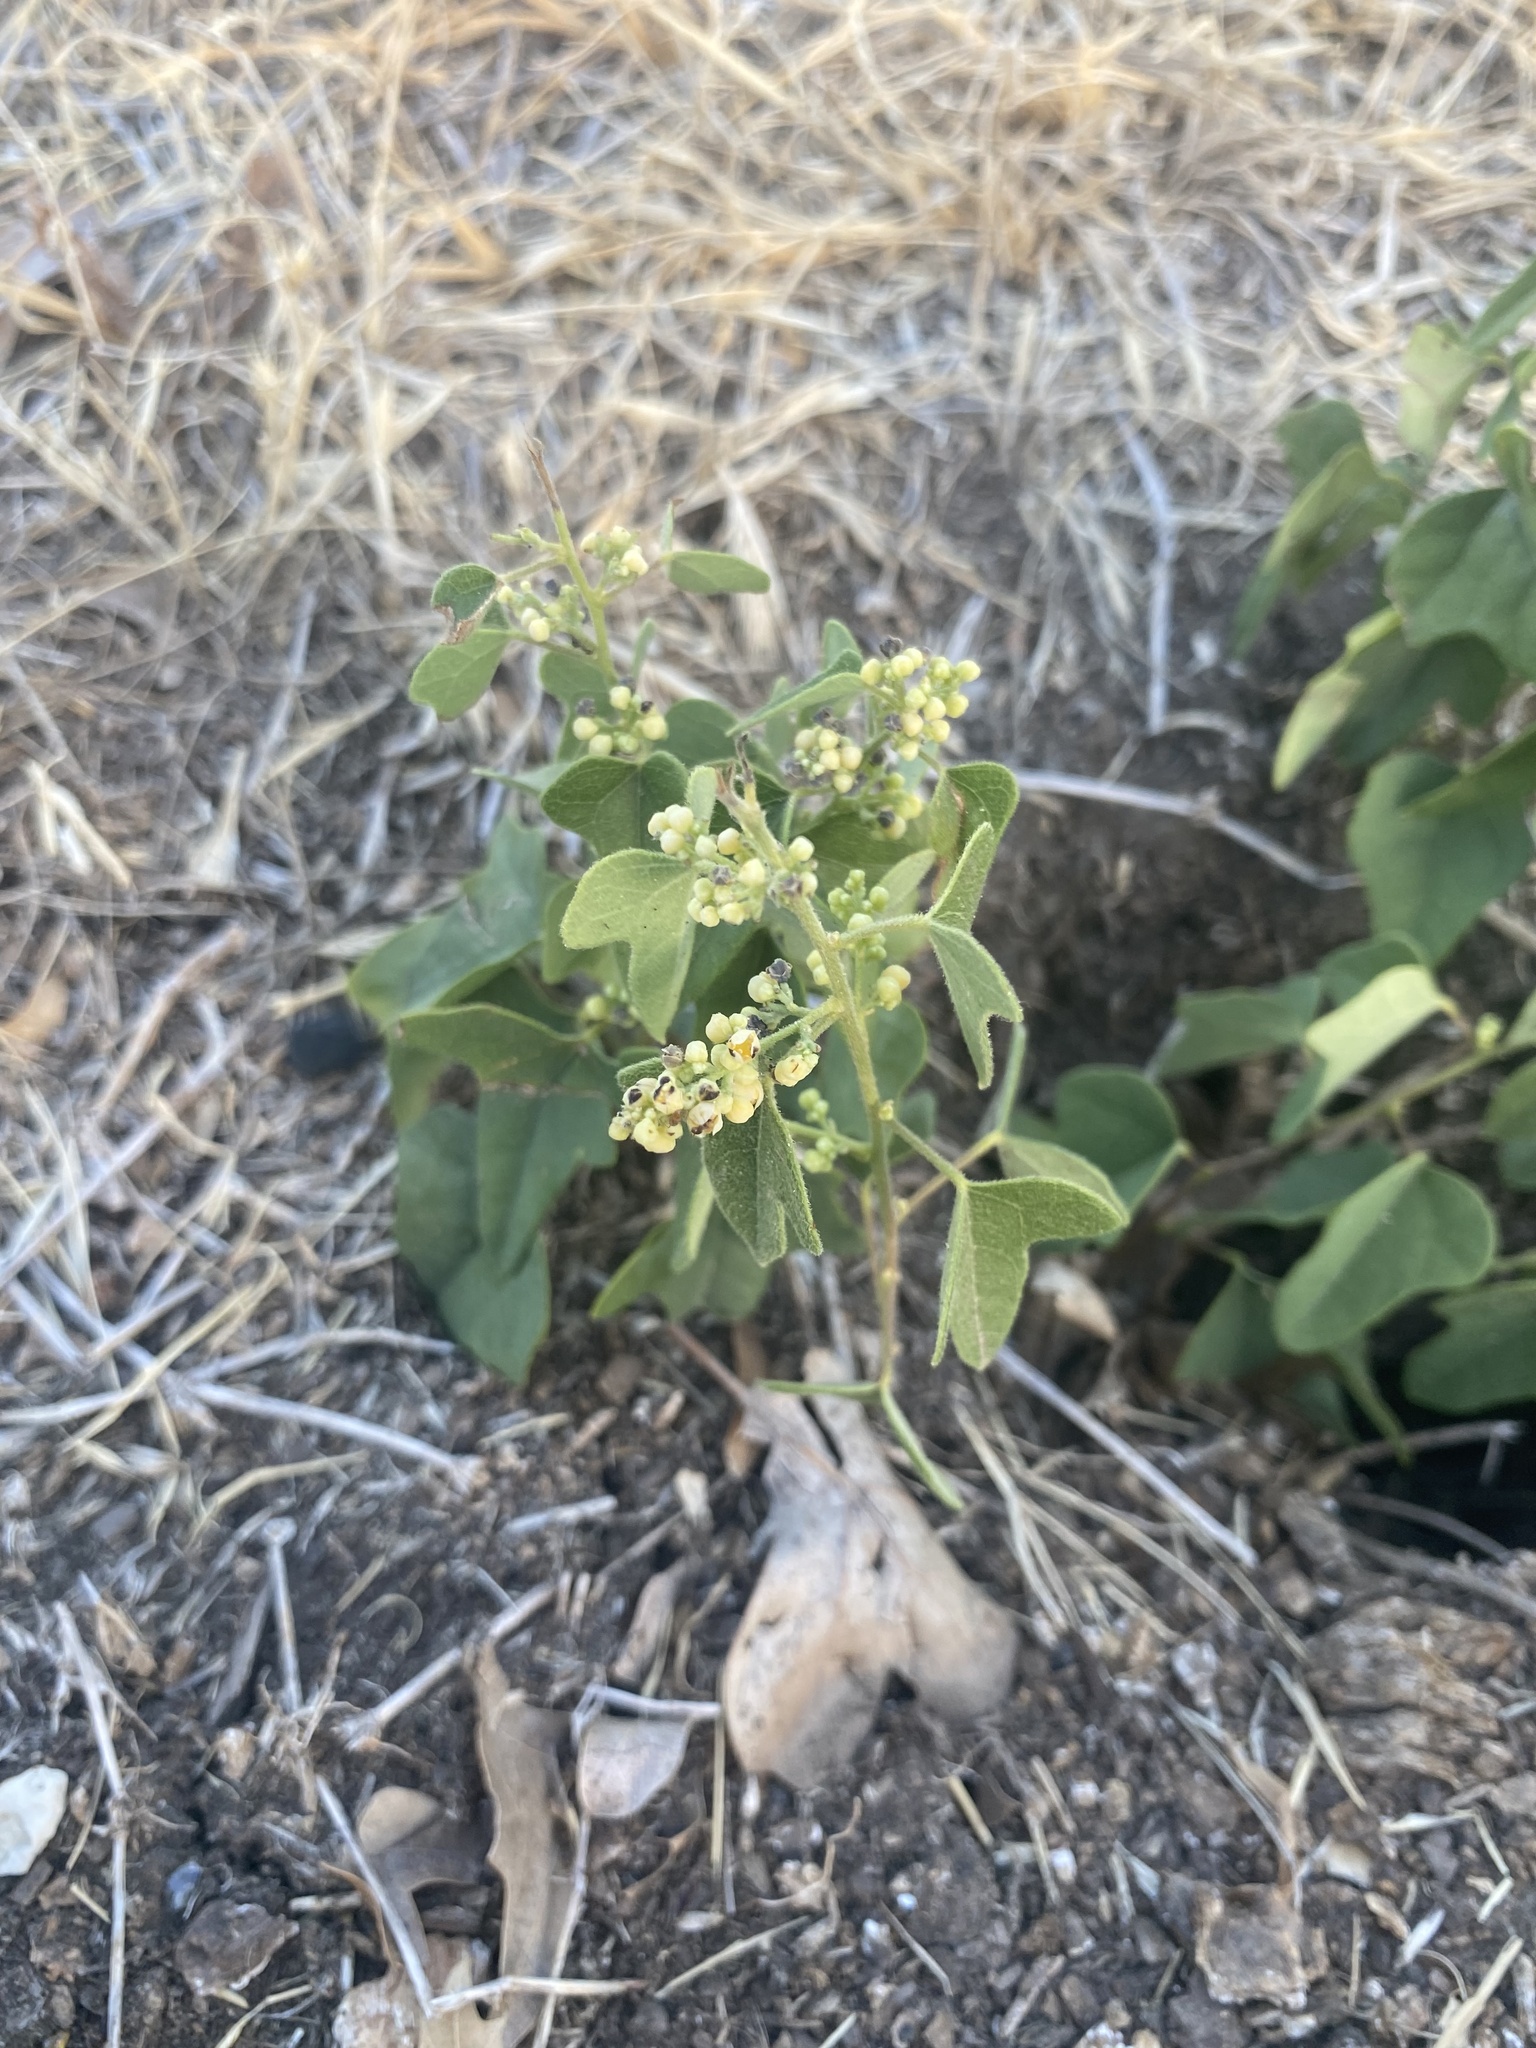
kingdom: Plantae
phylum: Tracheophyta
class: Magnoliopsida
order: Ranunculales
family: Menispermaceae
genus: Cocculus
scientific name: Cocculus carolinus
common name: Carolina moonseed
